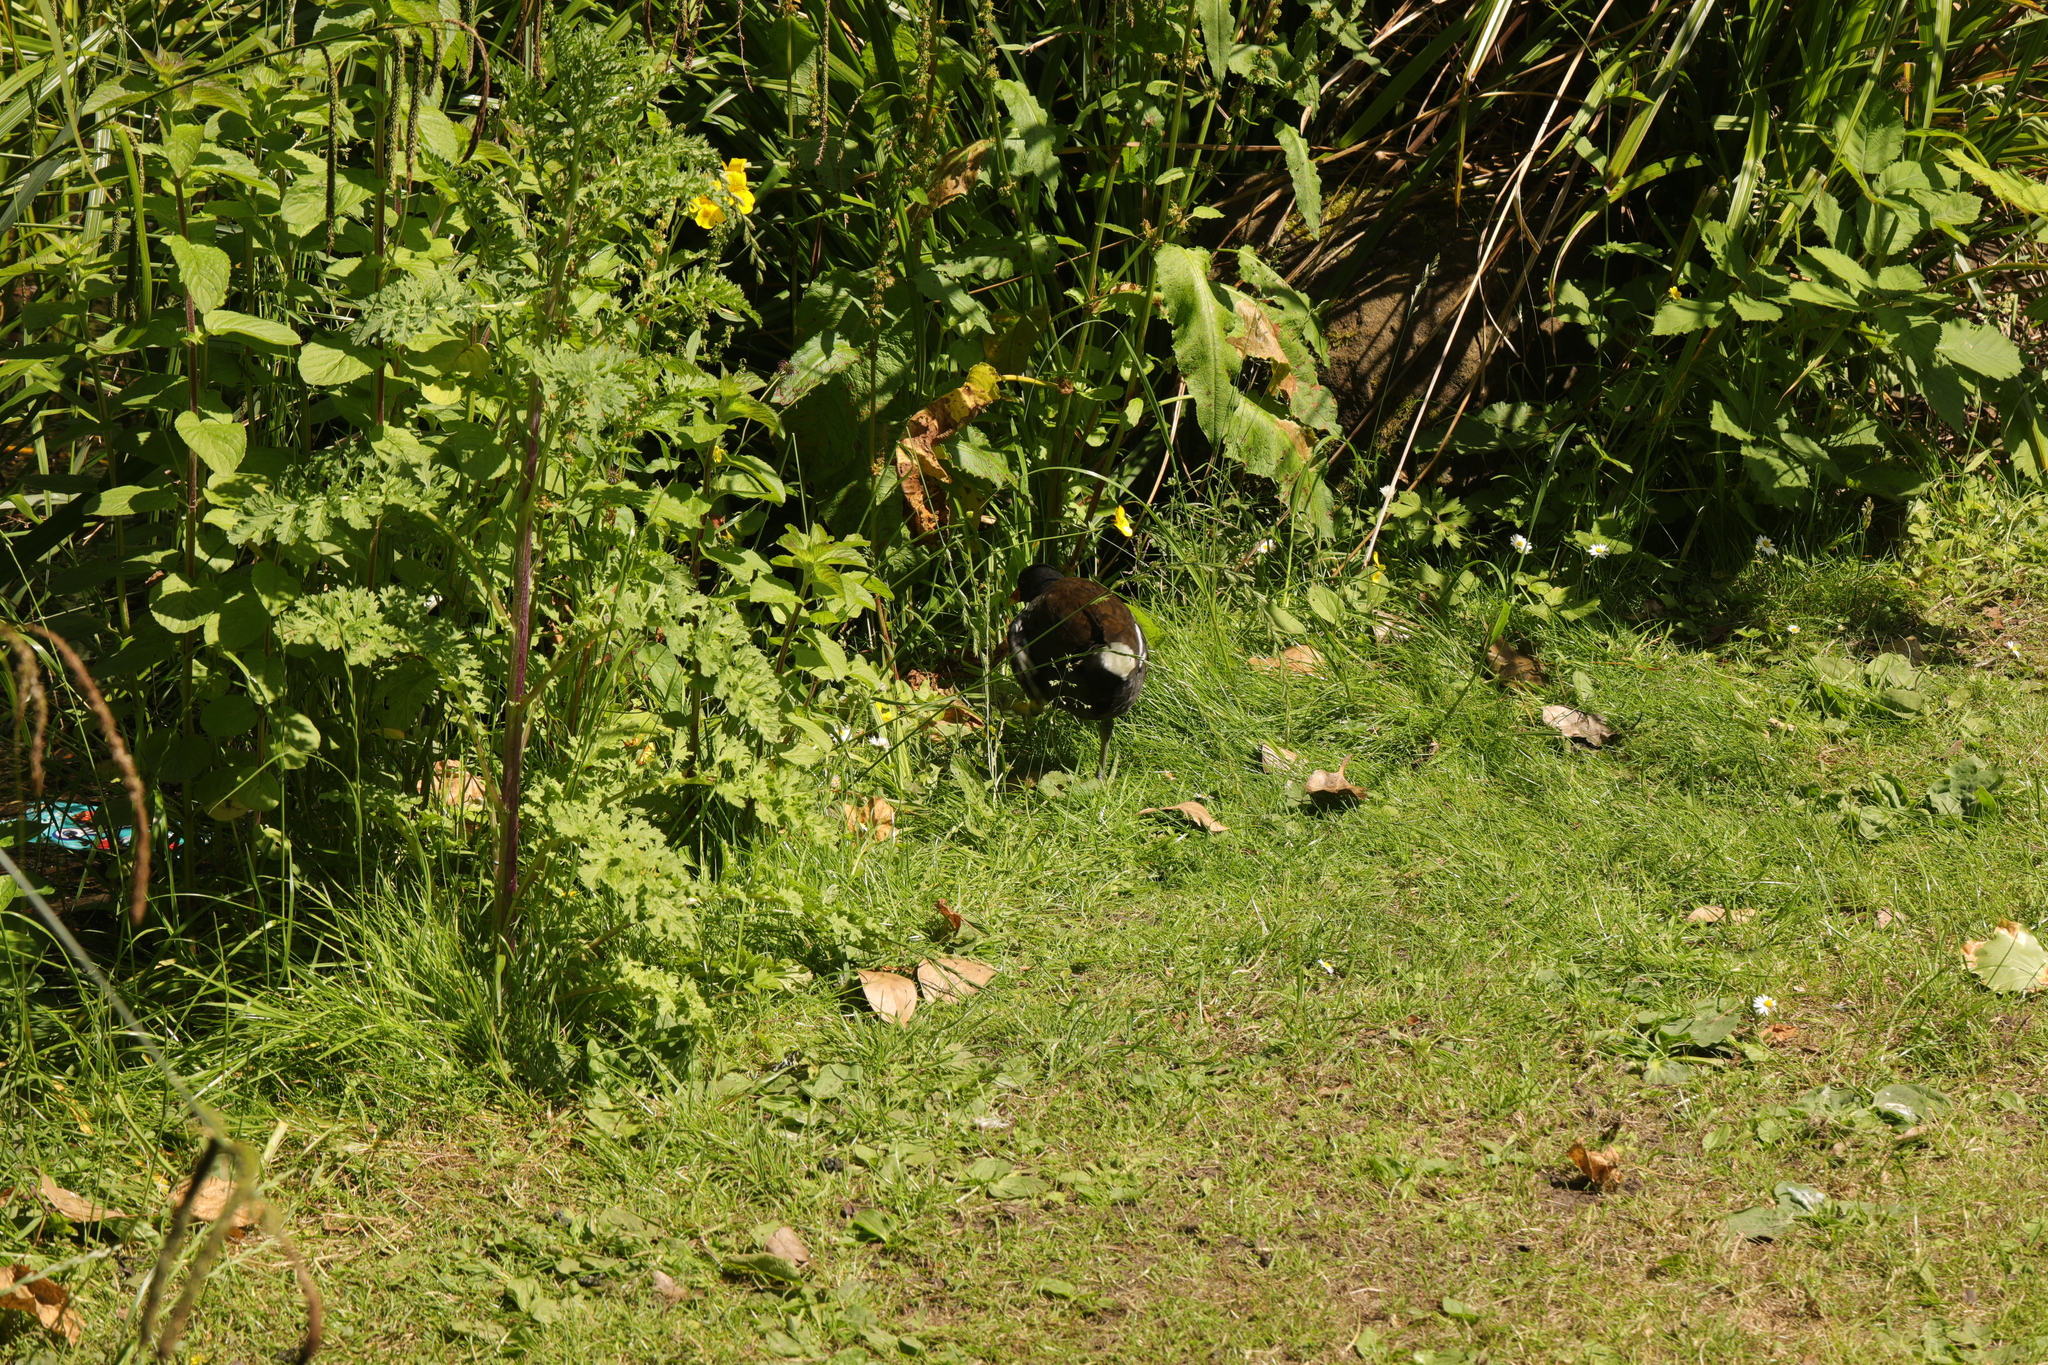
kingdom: Animalia
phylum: Chordata
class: Aves
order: Gruiformes
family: Rallidae
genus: Gallinula
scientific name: Gallinula chloropus
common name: Common moorhen
